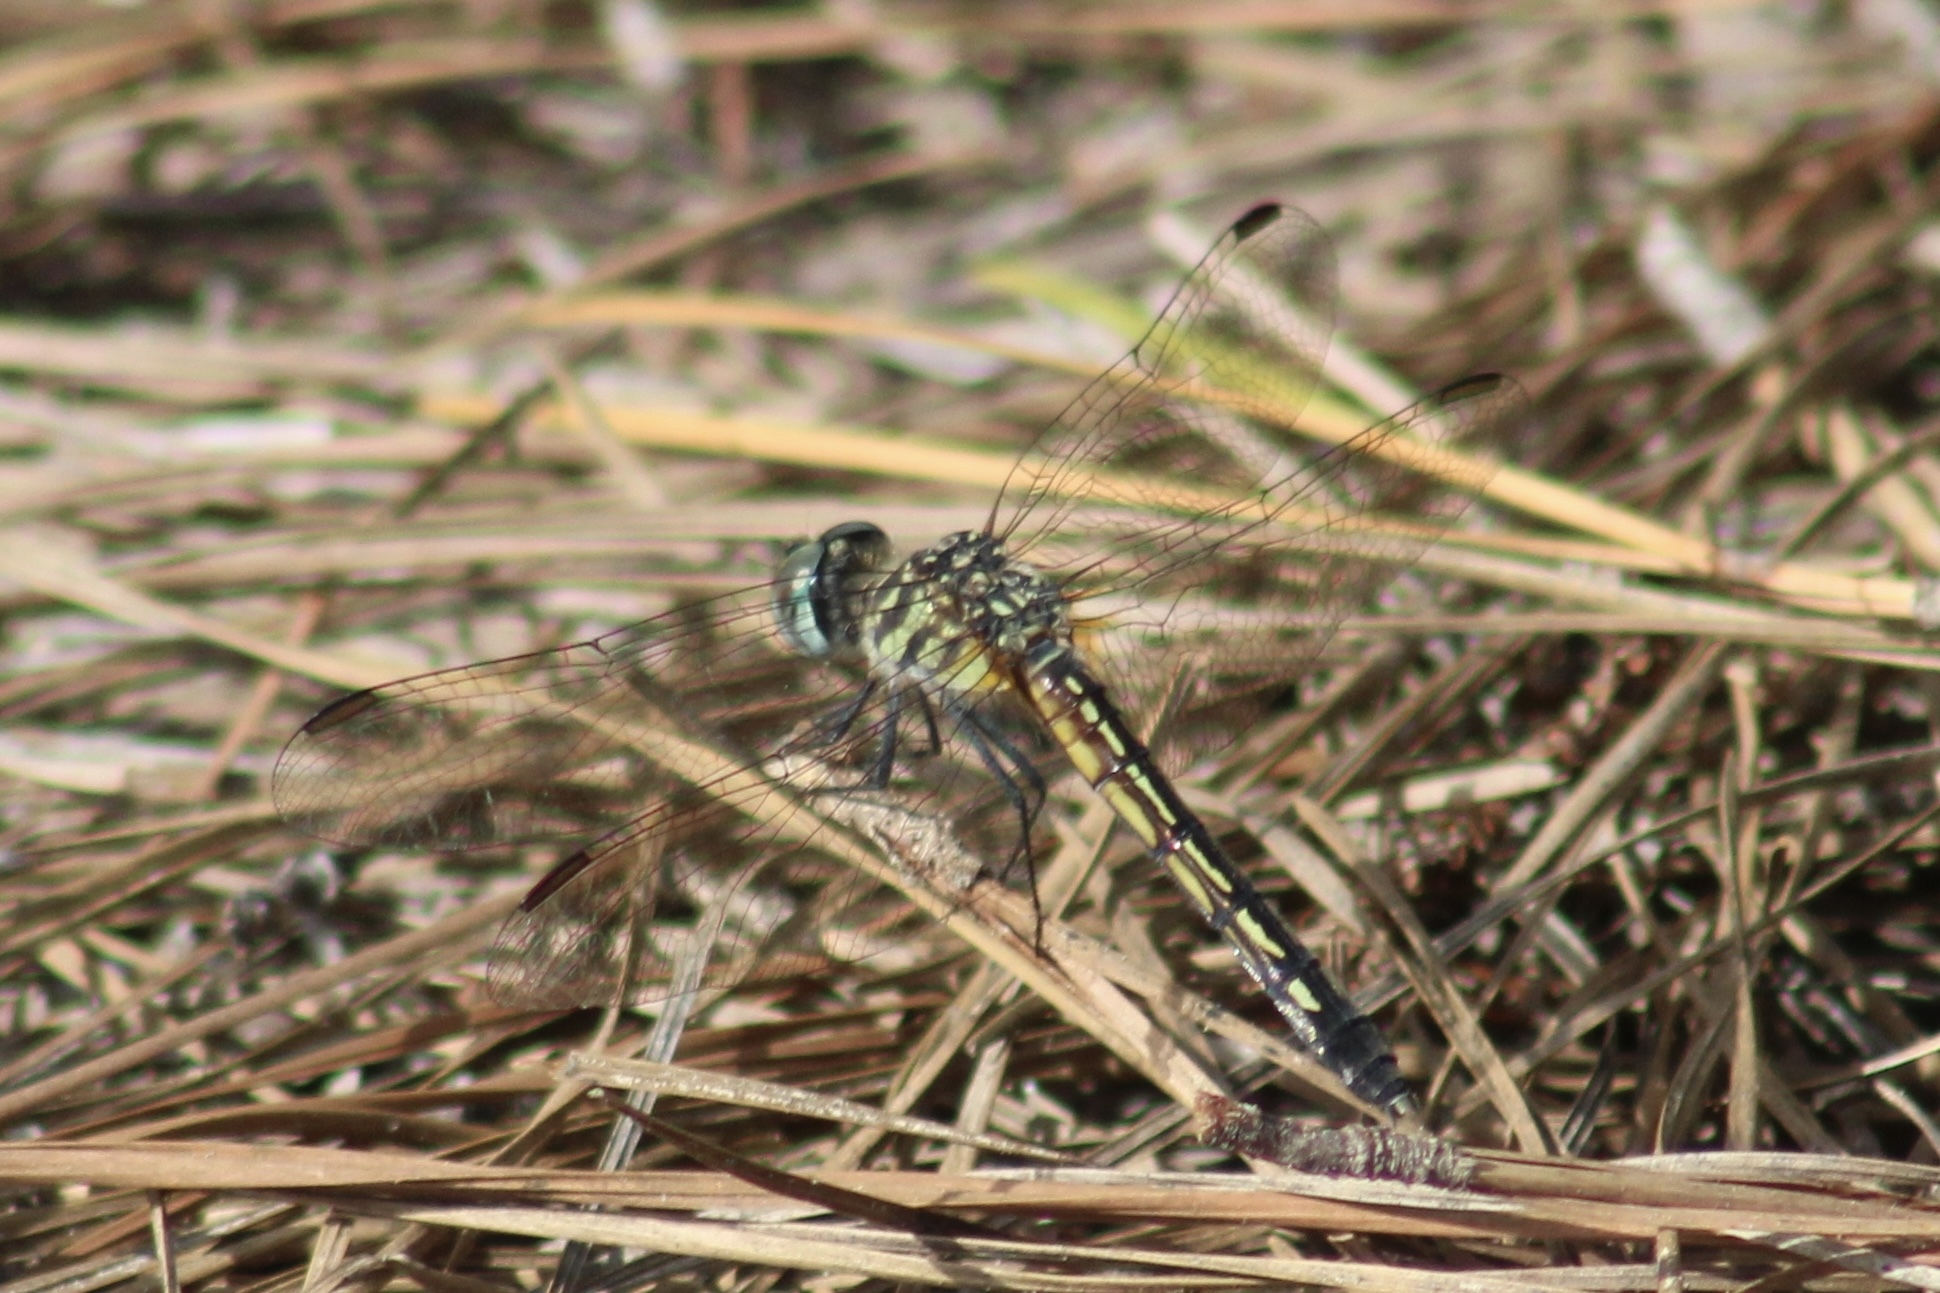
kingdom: Animalia
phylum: Arthropoda
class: Insecta
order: Odonata
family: Libellulidae
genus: Pachydiplax
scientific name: Pachydiplax longipennis
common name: Blue dasher
